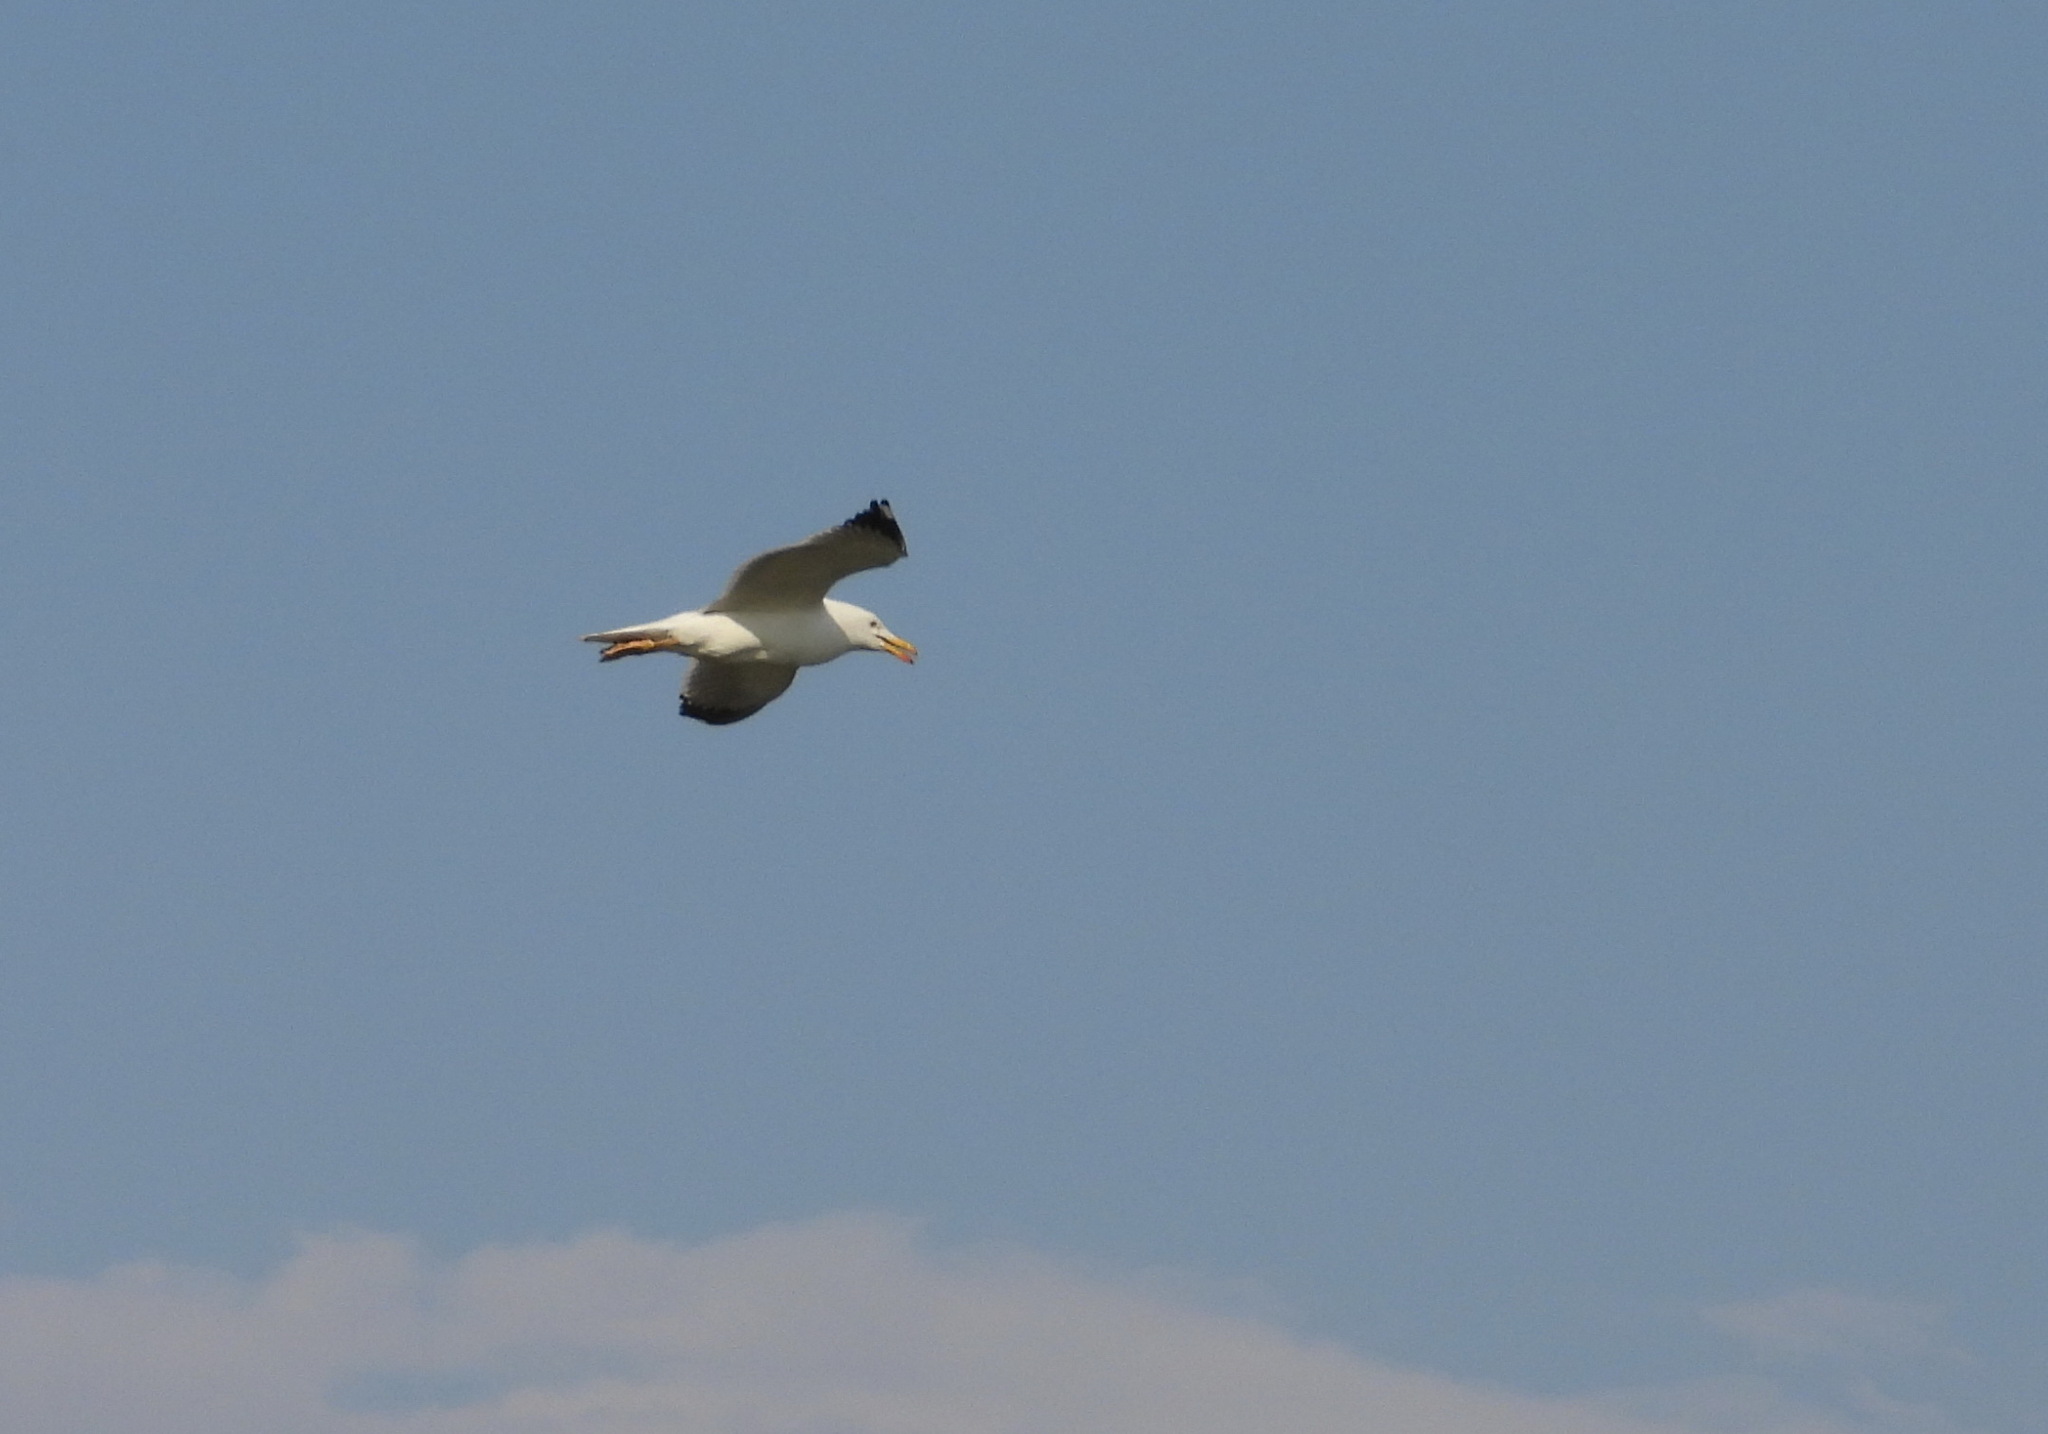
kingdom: Animalia
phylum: Chordata
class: Aves
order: Charadriiformes
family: Laridae
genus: Larus
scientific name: Larus fuscus
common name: Lesser black-backed gull
